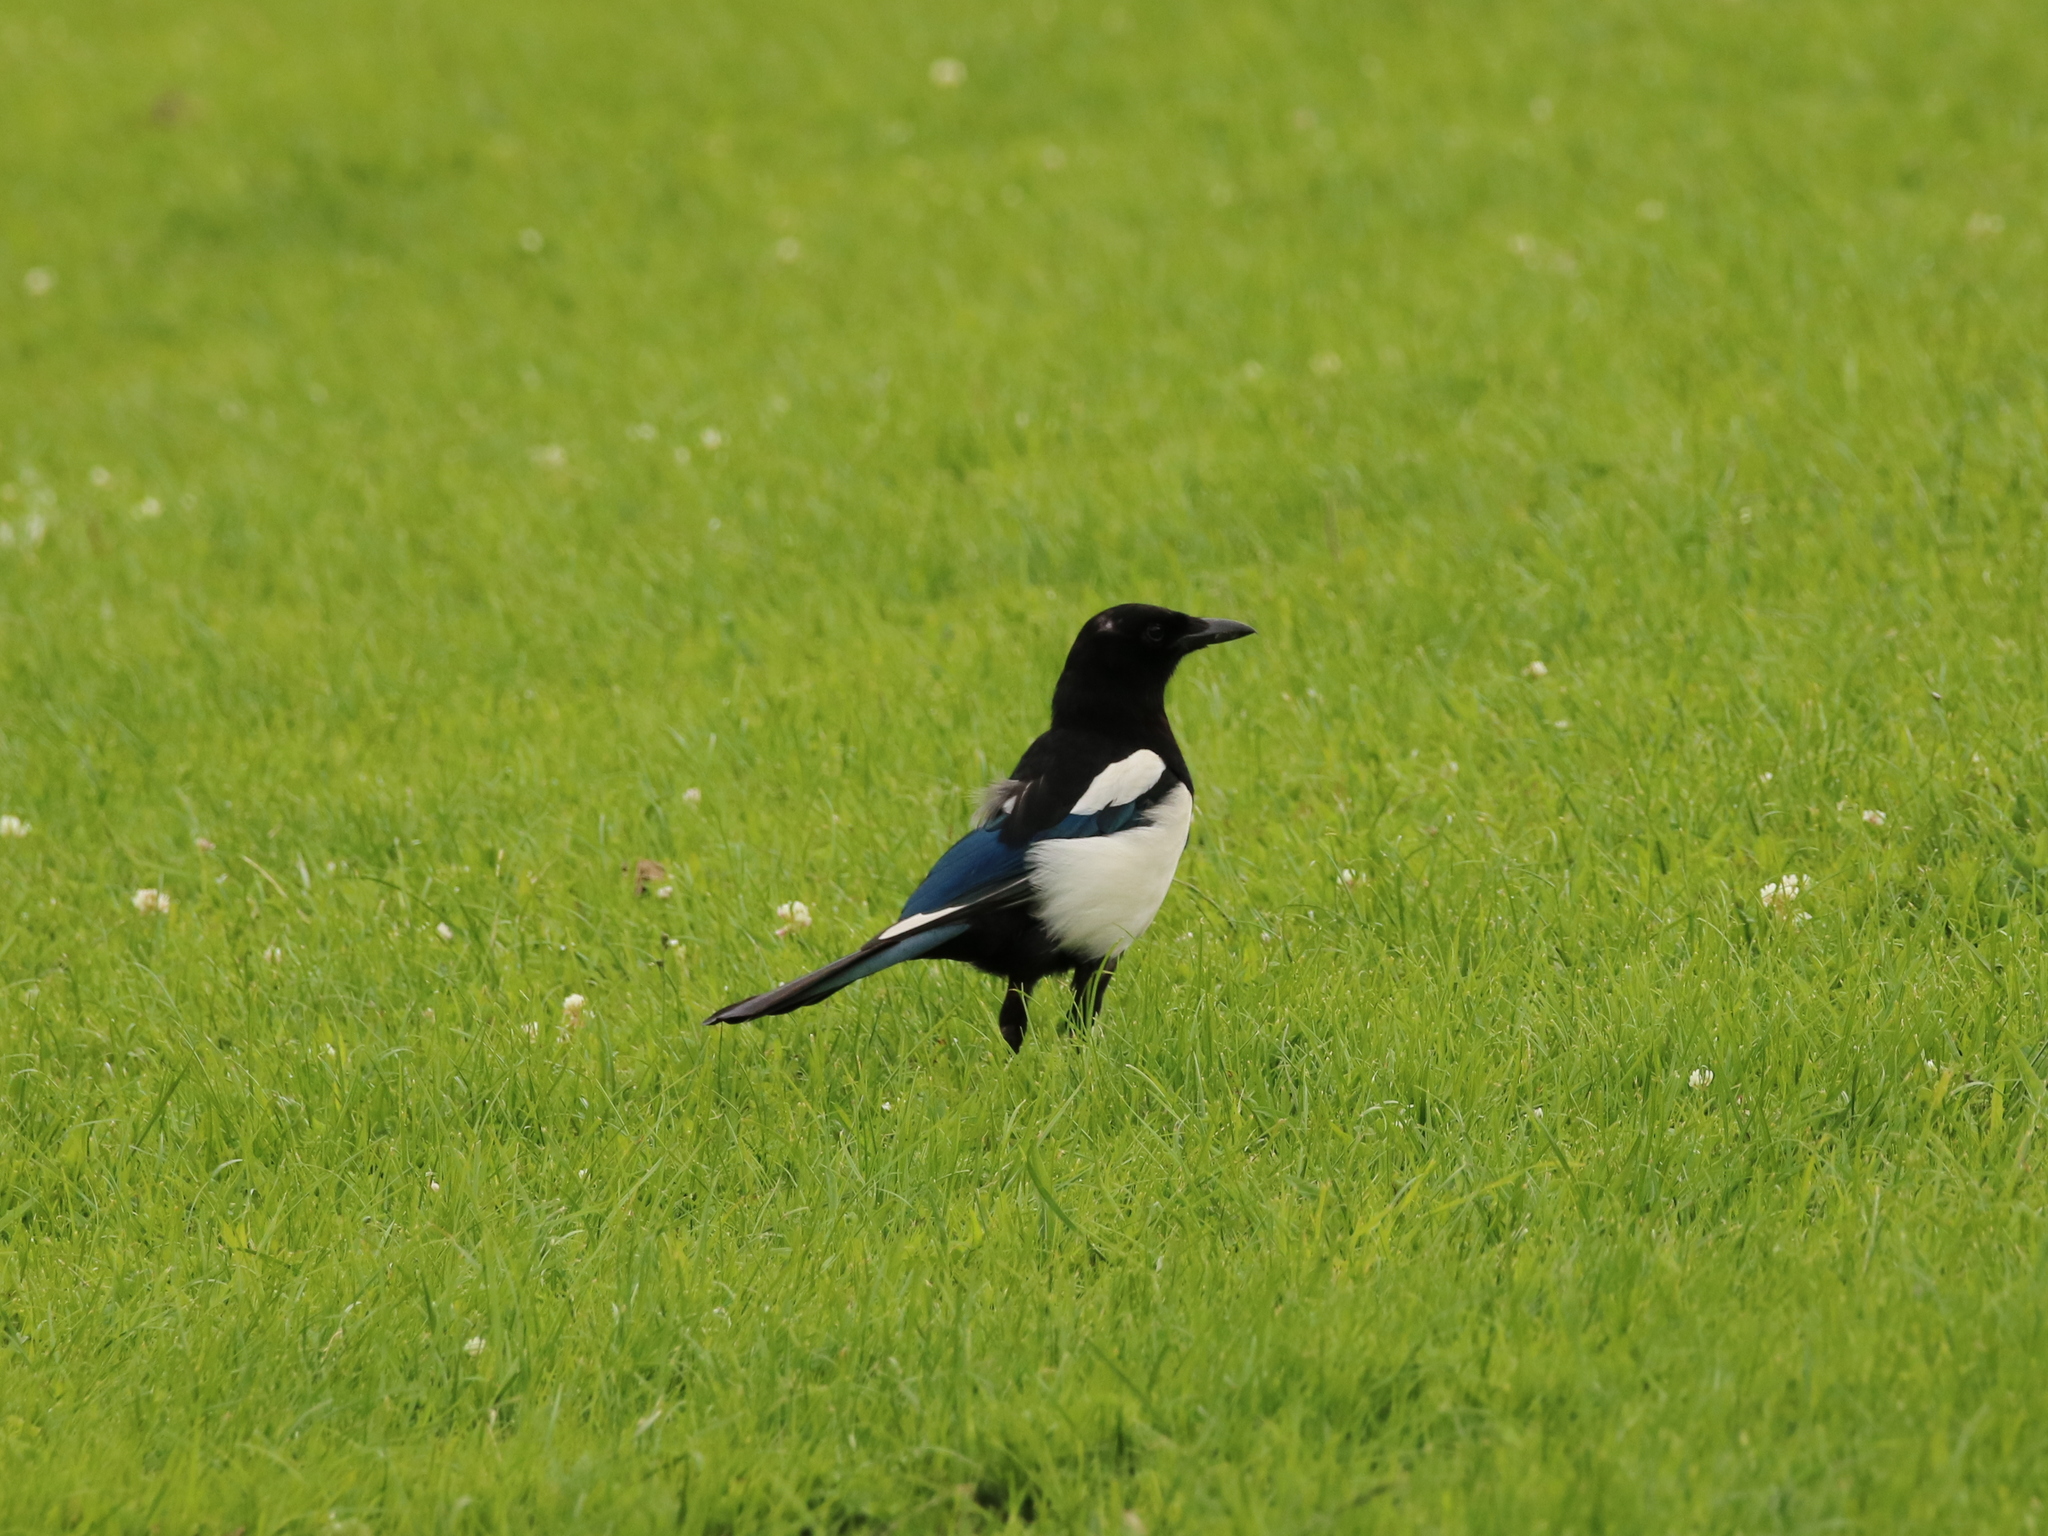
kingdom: Animalia
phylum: Chordata
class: Aves
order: Passeriformes
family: Corvidae
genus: Pica
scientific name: Pica pica
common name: Eurasian magpie
